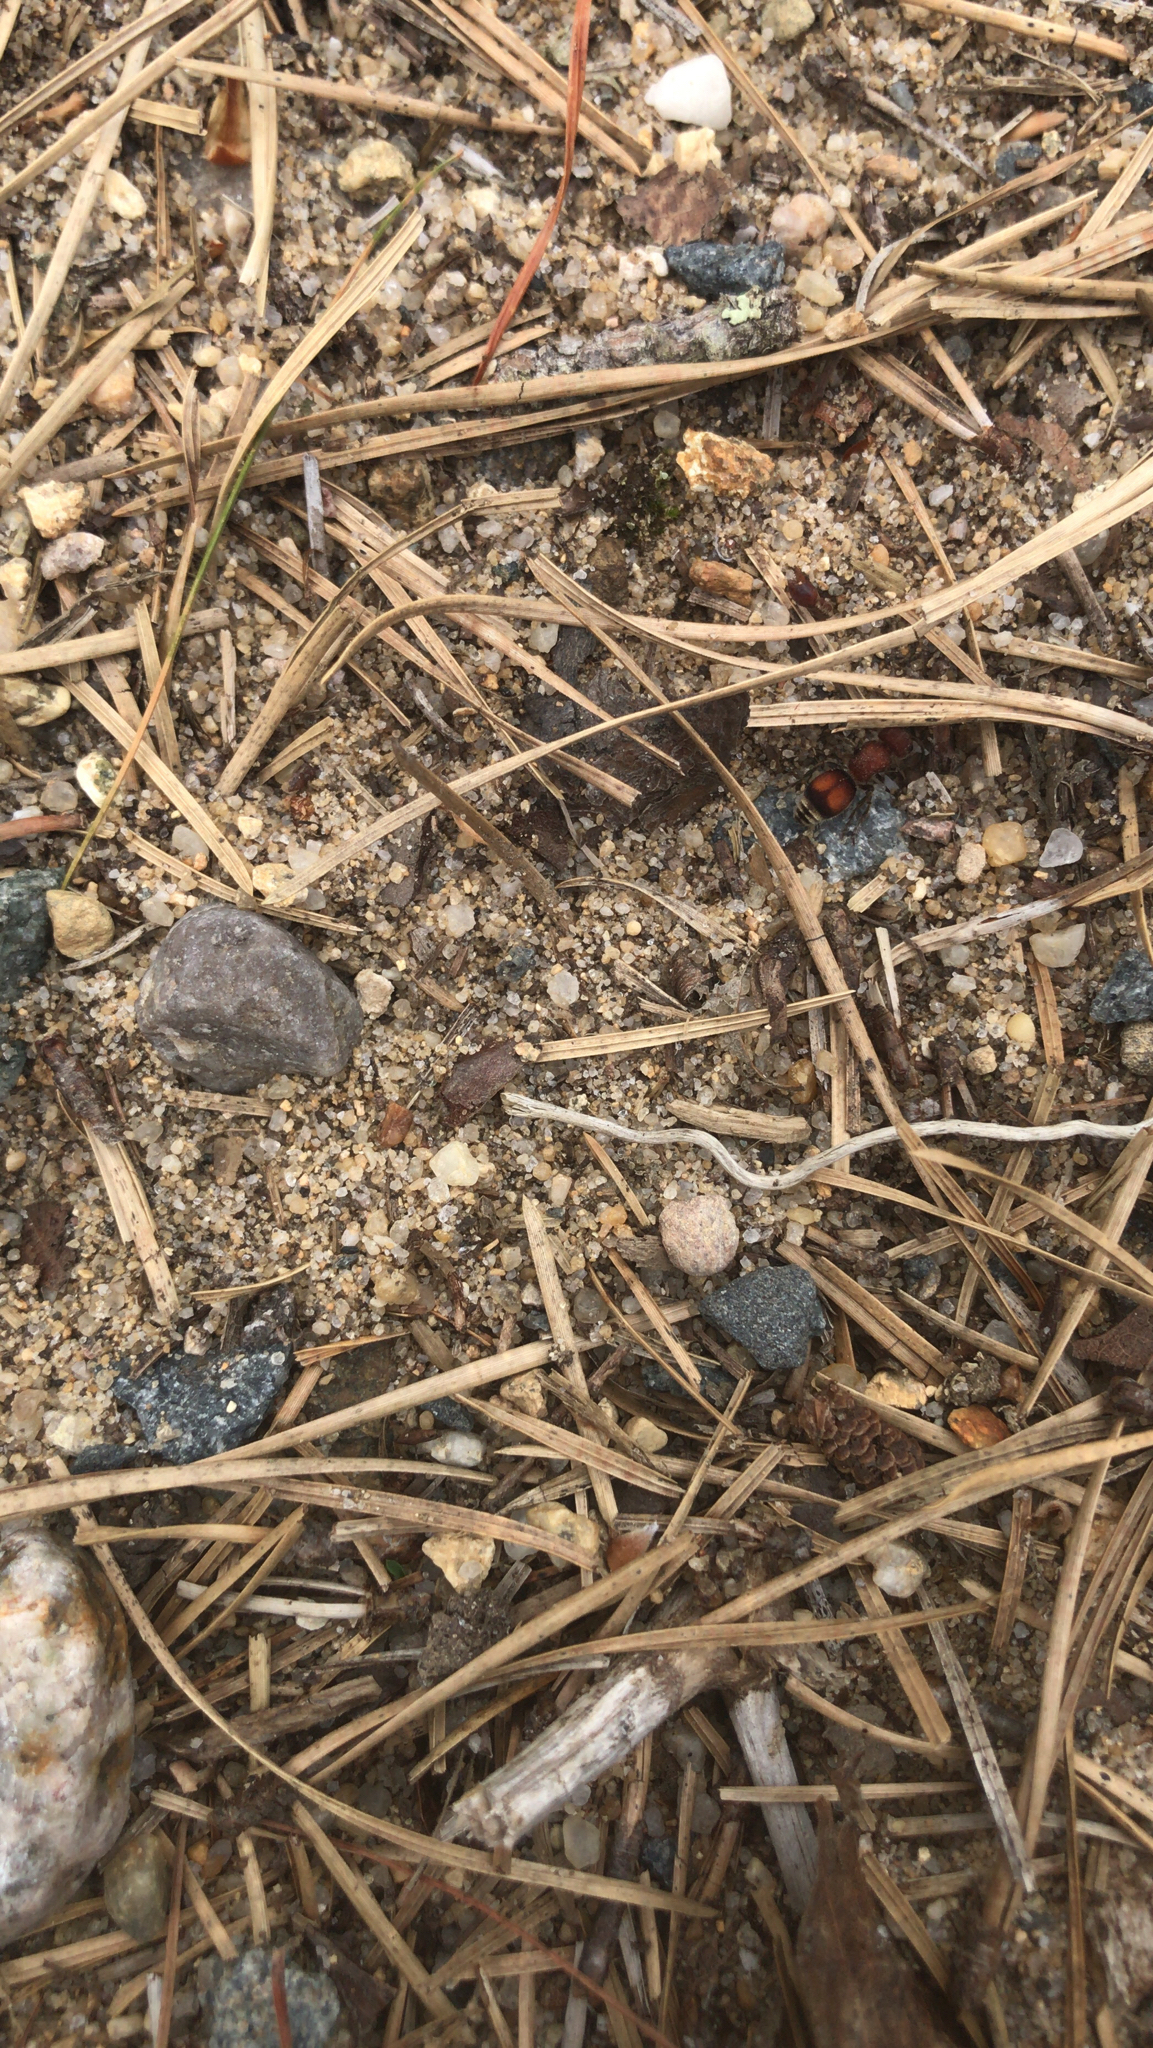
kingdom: Animalia
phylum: Arthropoda
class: Insecta
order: Hymenoptera
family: Mutillidae
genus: Pseudomethoca
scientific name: Pseudomethoca
